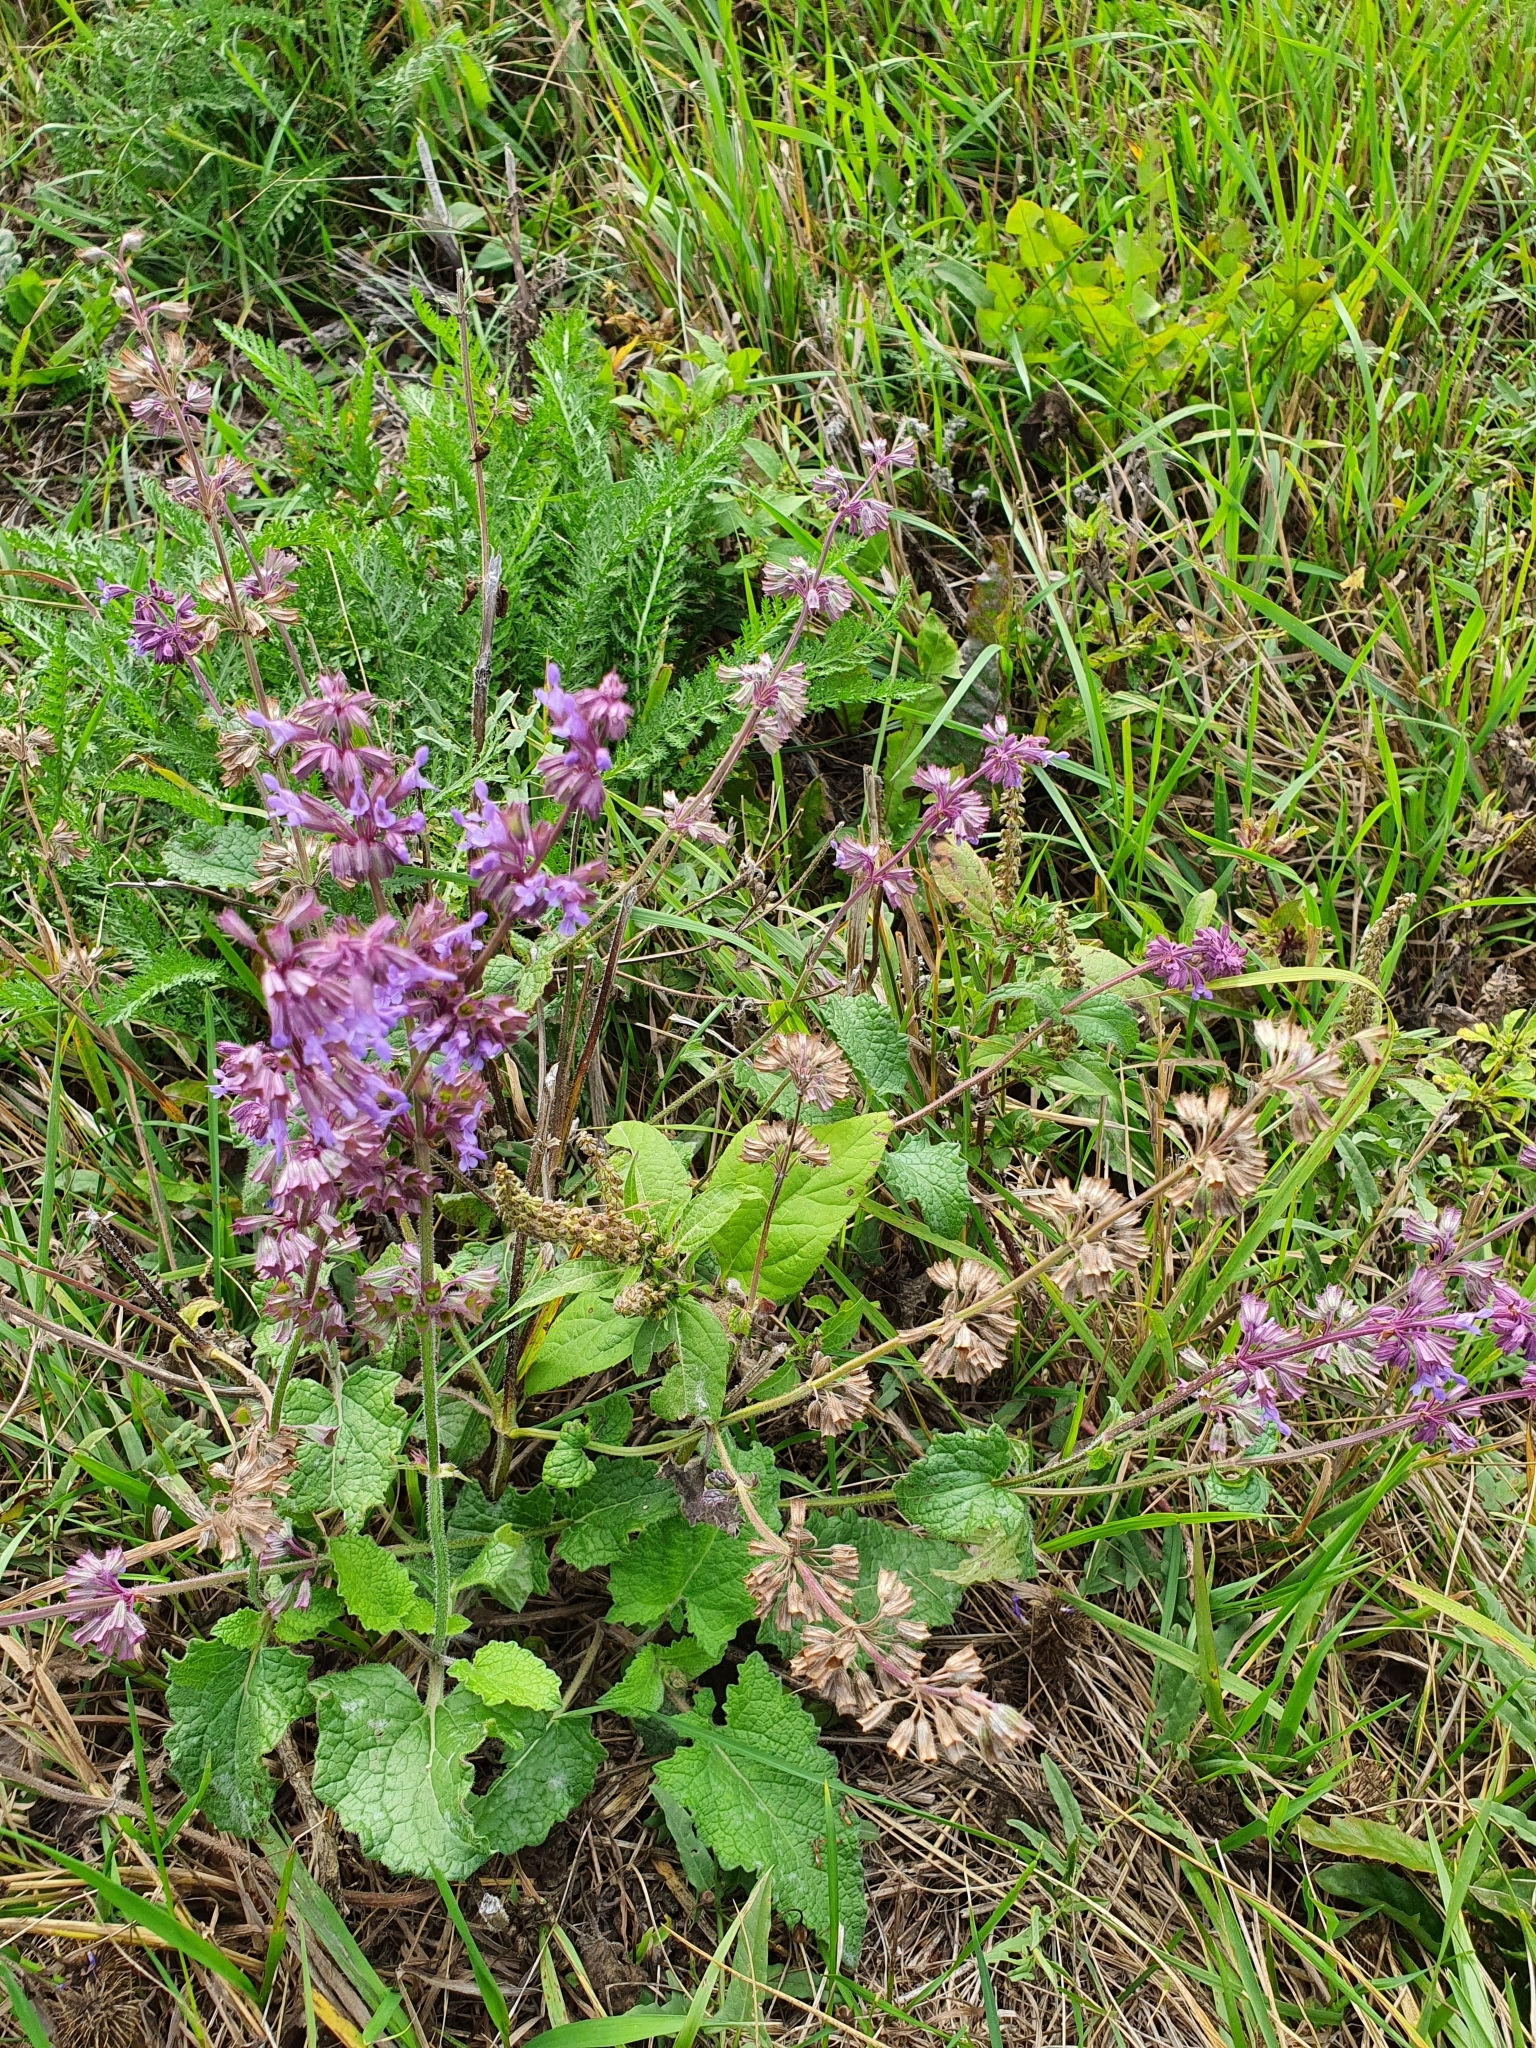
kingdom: Plantae
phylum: Tracheophyta
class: Magnoliopsida
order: Lamiales
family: Lamiaceae
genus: Salvia
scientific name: Salvia verticillata
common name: Whorled clary
